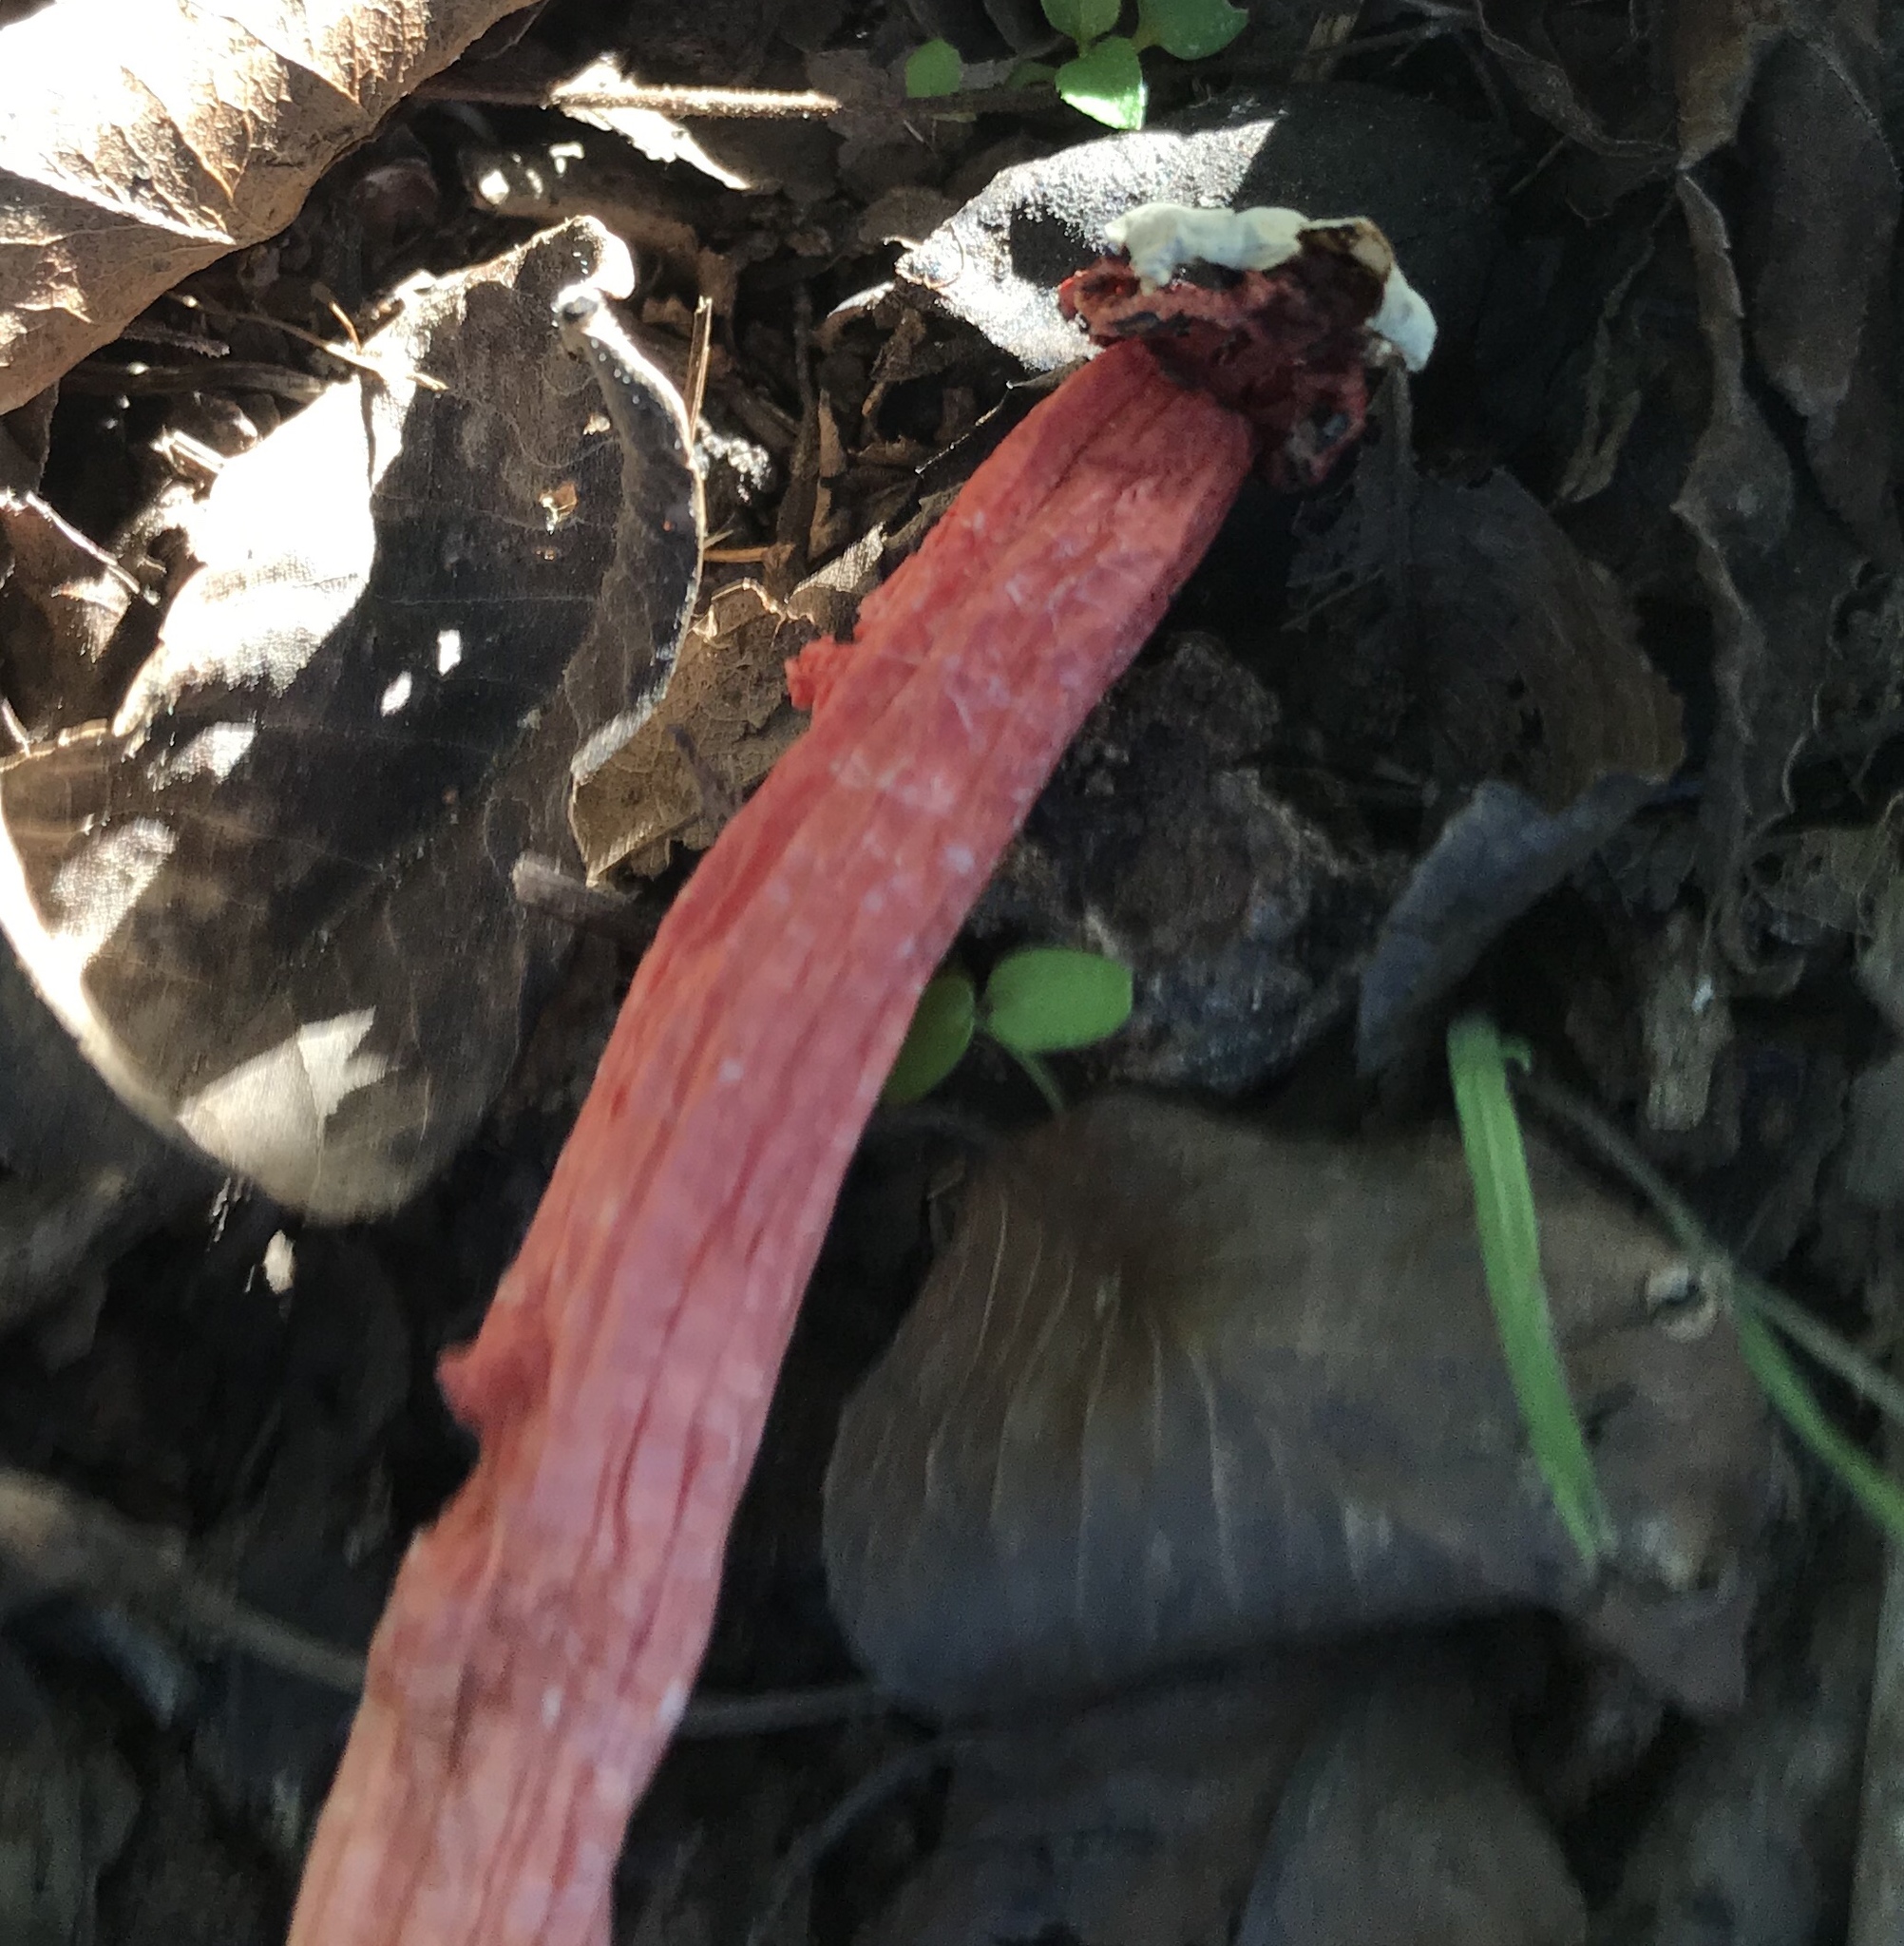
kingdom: Fungi
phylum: Basidiomycota
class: Agaricomycetes
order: Phallales
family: Phallaceae
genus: Lysurus
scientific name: Lysurus periphragmoides
